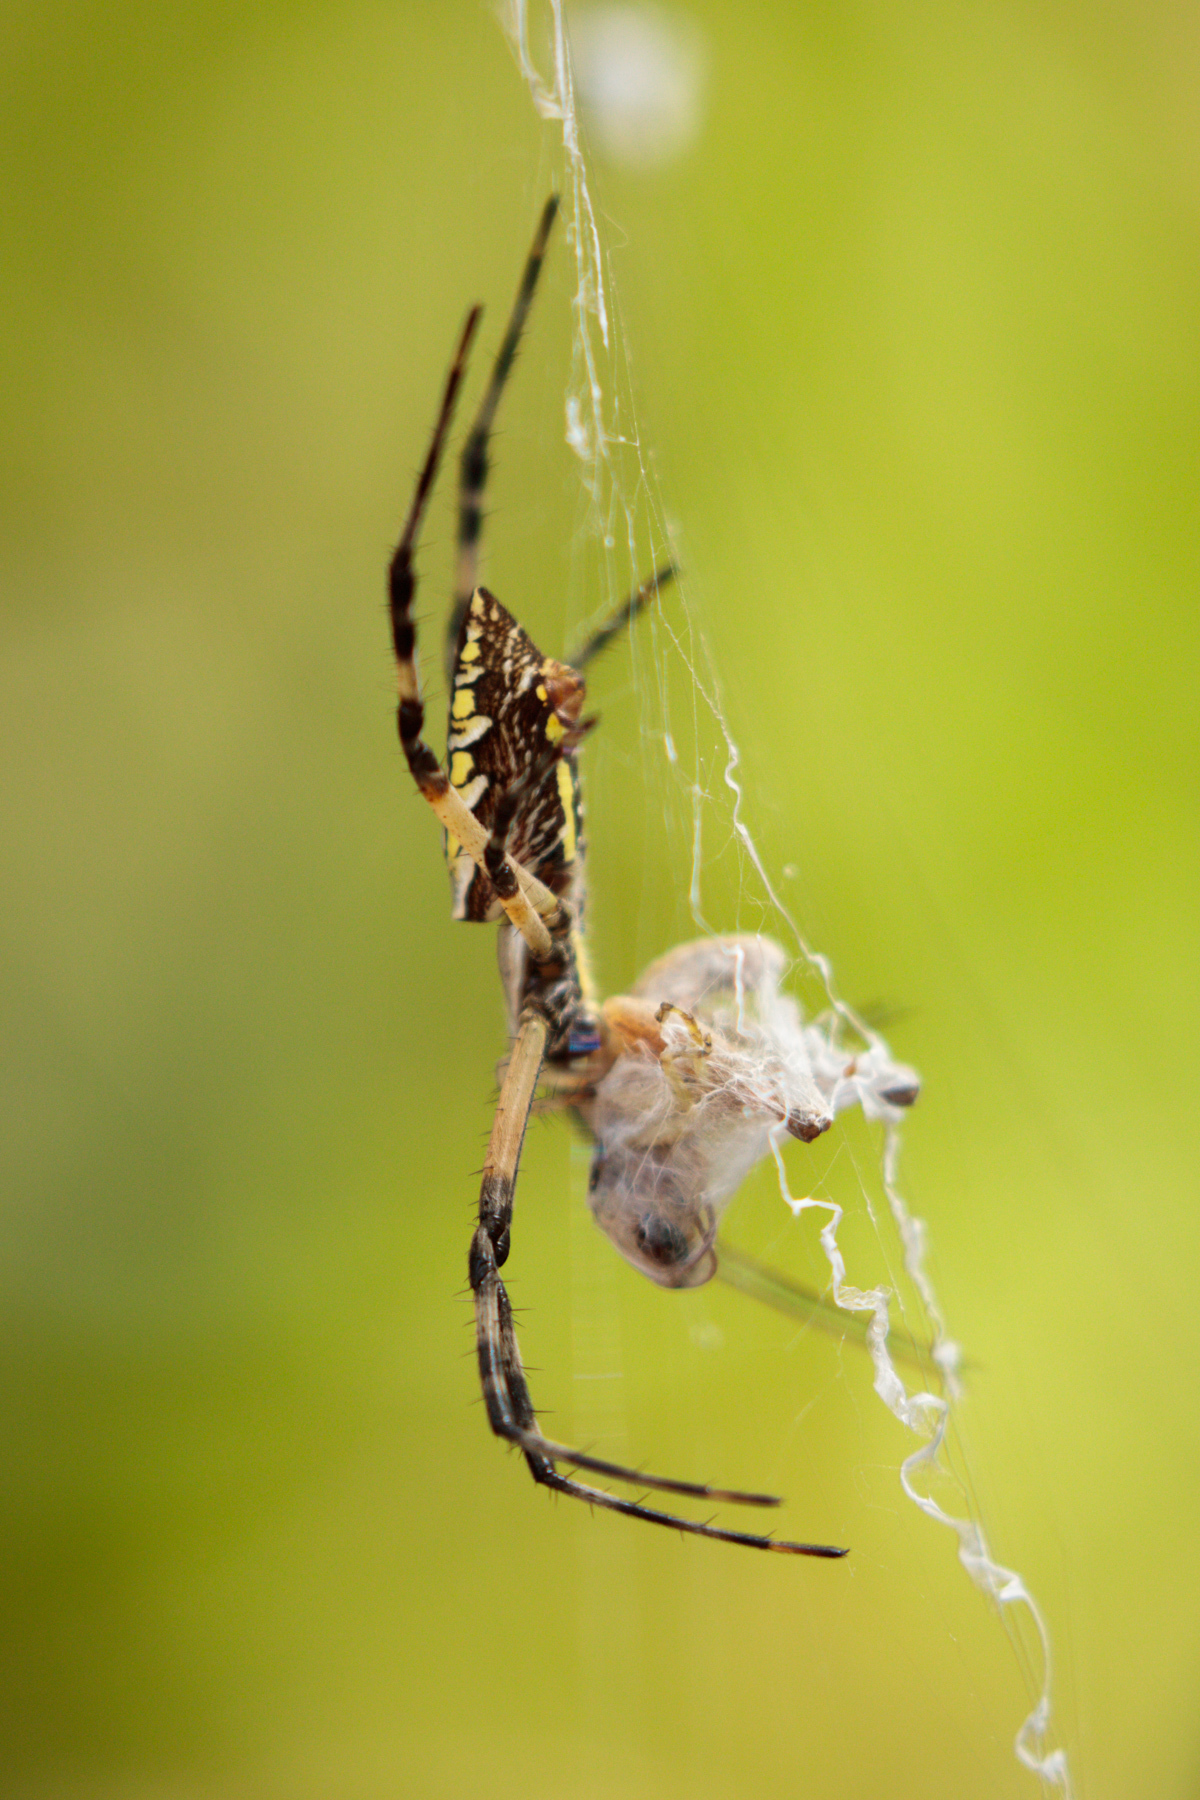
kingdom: Animalia
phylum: Arthropoda
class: Arachnida
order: Araneae
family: Araneidae
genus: Argiope
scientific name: Argiope aurantia
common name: Orb weavers
